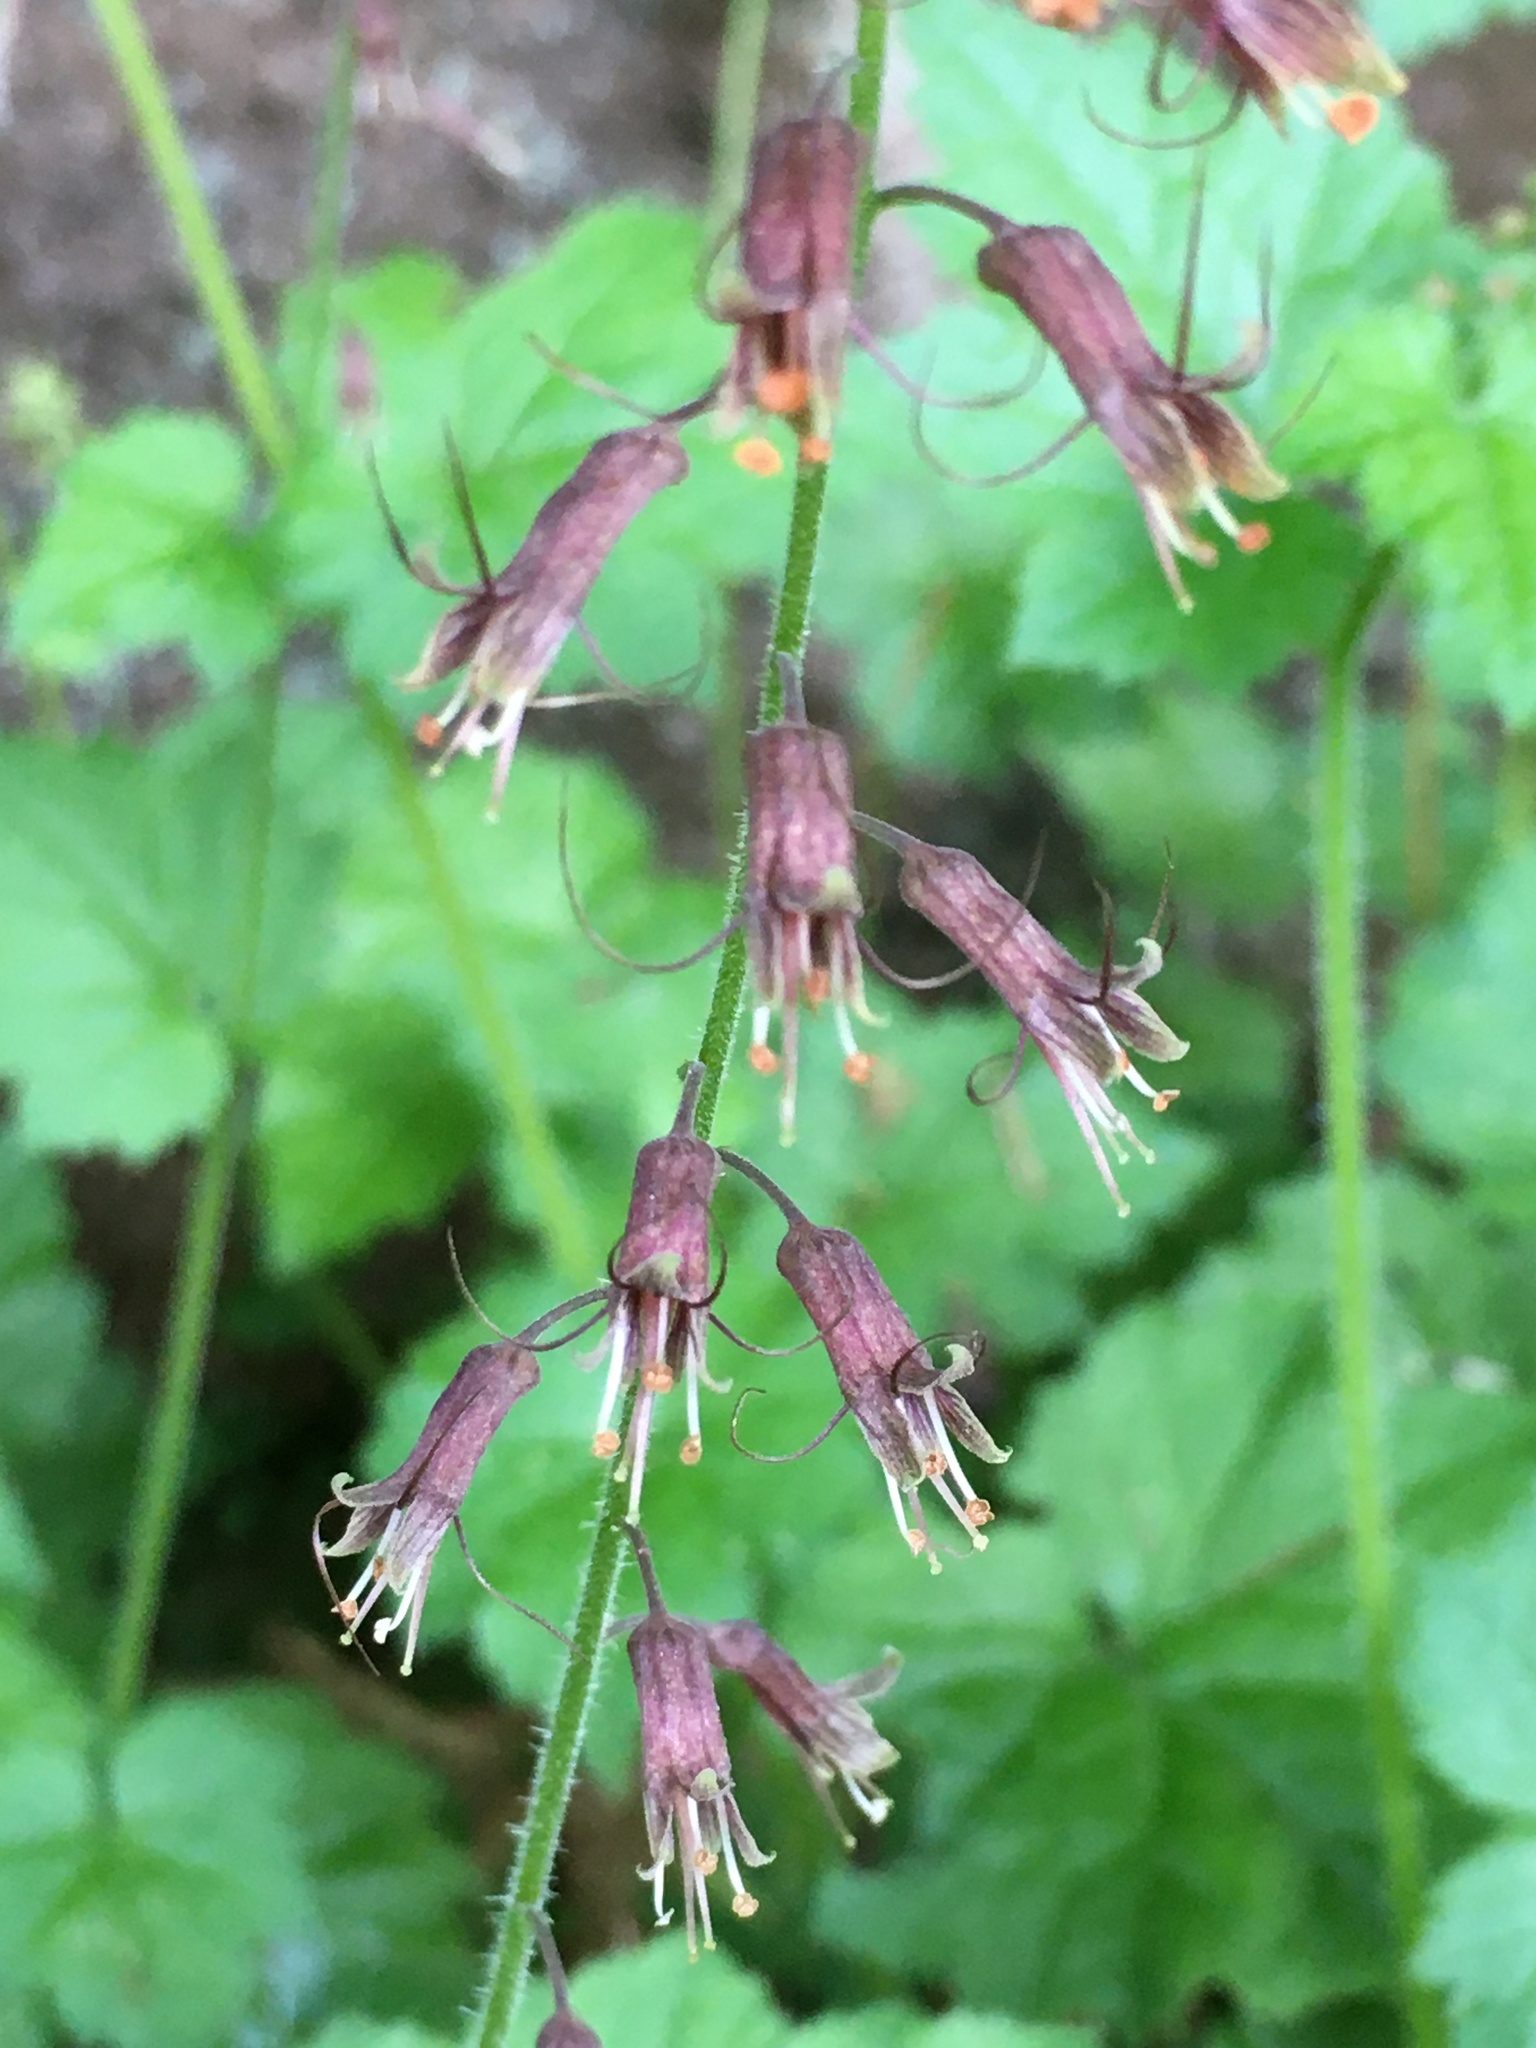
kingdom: Plantae
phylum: Tracheophyta
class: Magnoliopsida
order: Saxifragales
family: Saxifragaceae
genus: Tolmiea
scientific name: Tolmiea menziesii
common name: Pick-a-back-plant
